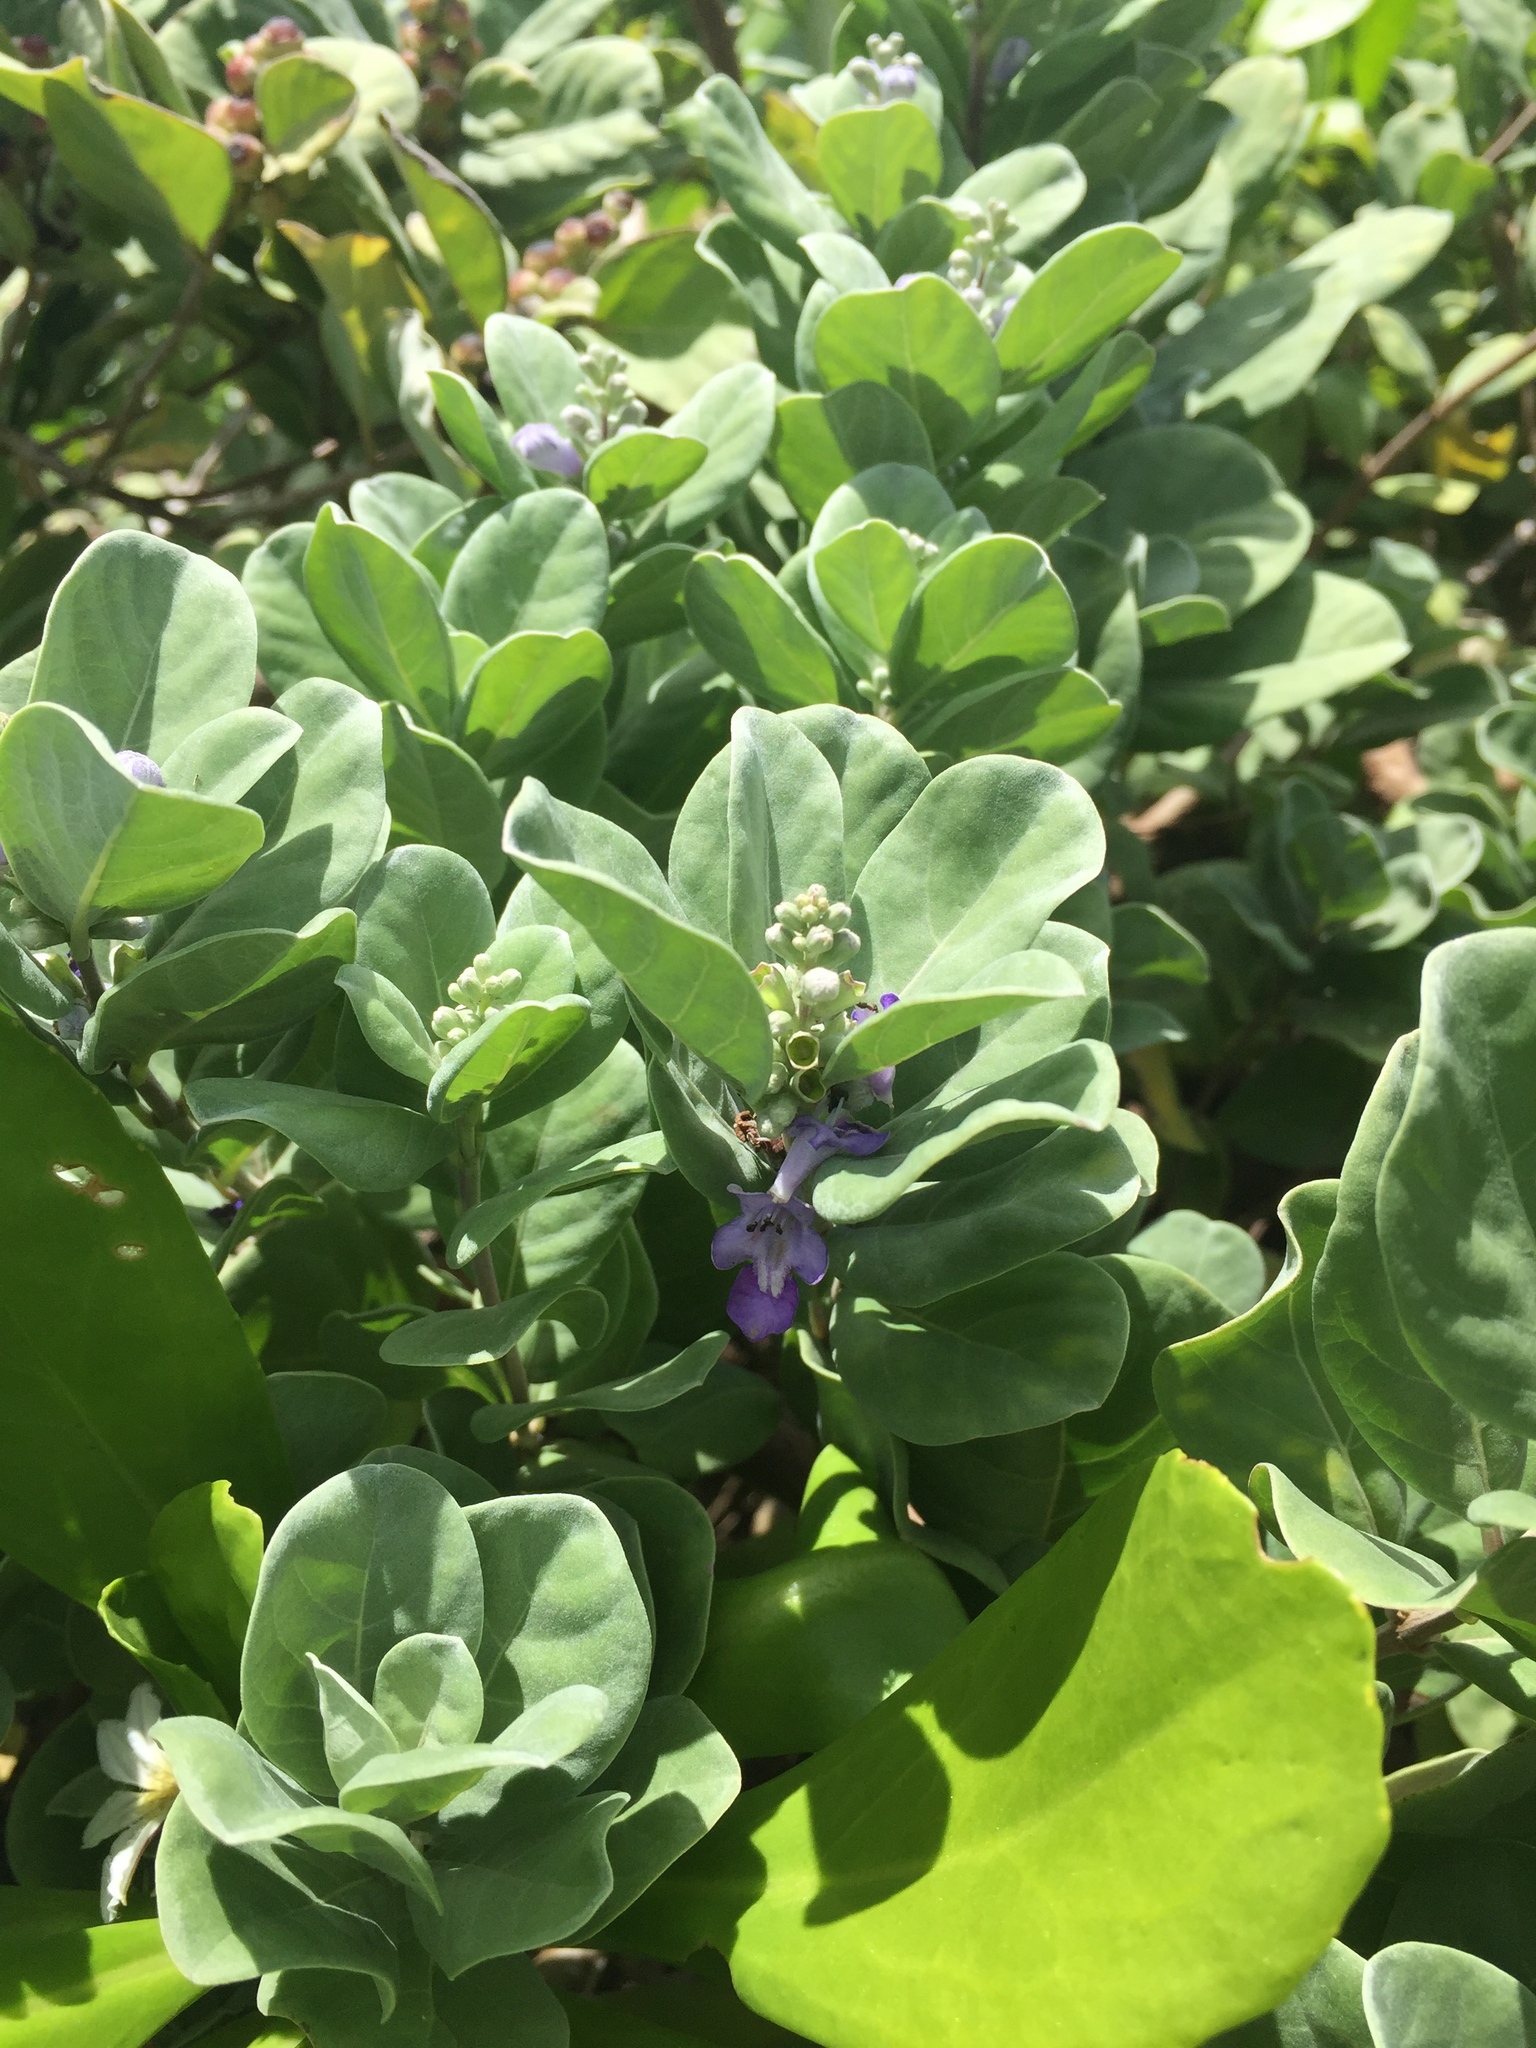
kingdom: Plantae
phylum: Tracheophyta
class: Magnoliopsida
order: Lamiales
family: Lamiaceae
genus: Vitex
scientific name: Vitex rotundifolia
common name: Beach vitex
